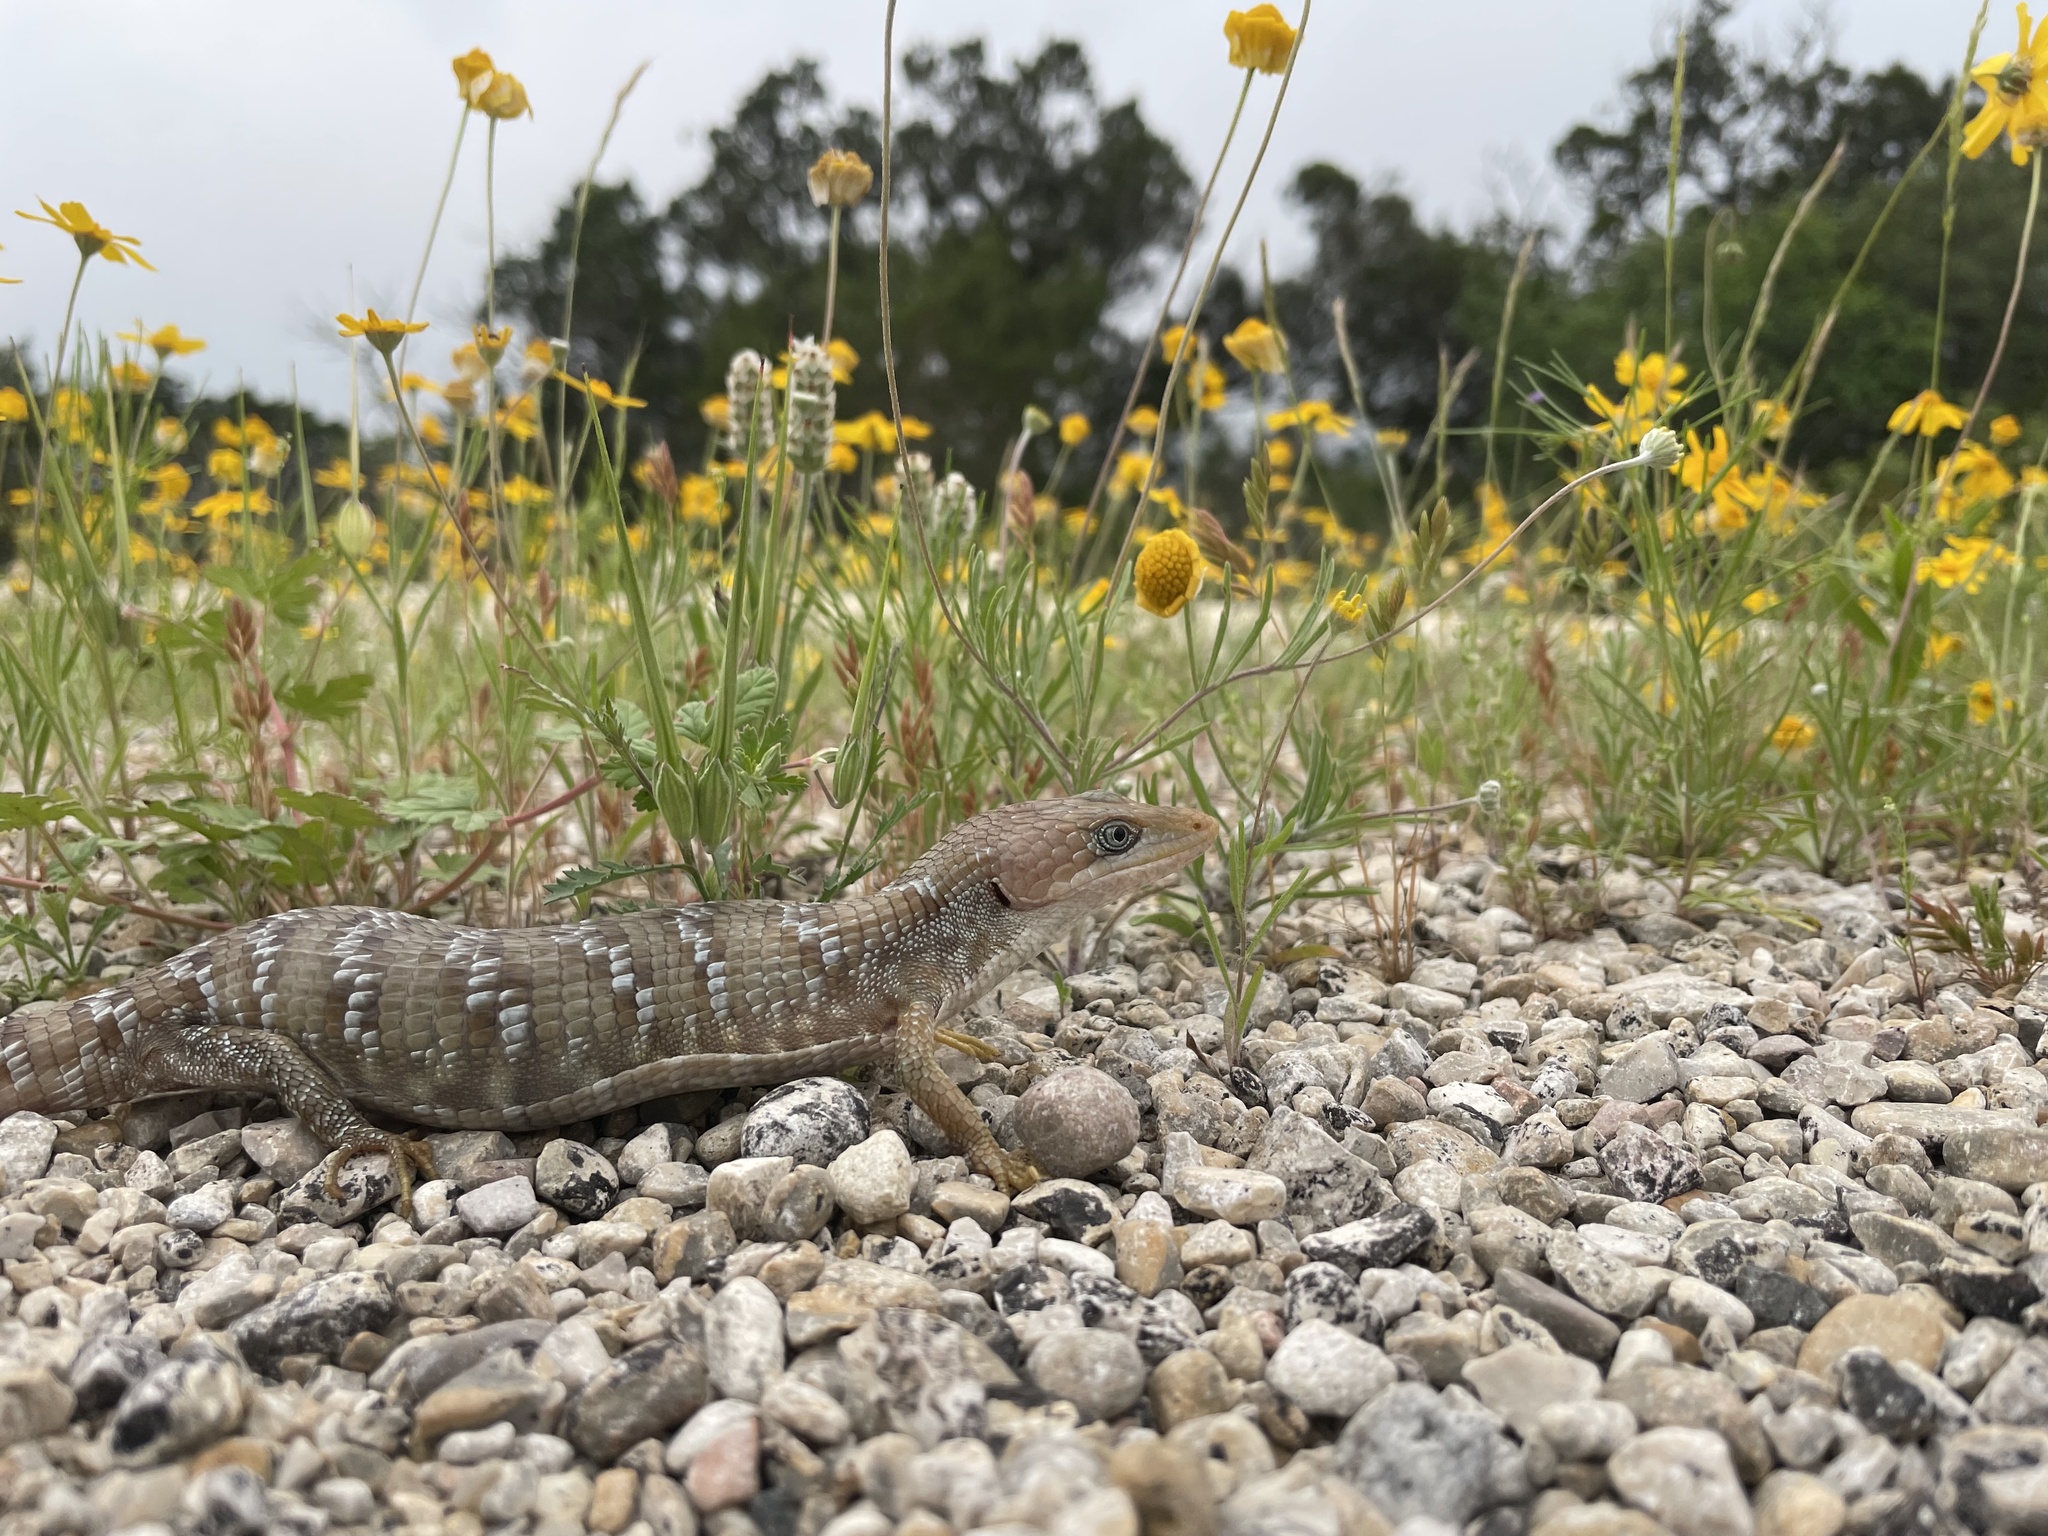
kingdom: Animalia
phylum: Chordata
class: Squamata
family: Anguidae
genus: Gerrhonotus
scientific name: Gerrhonotus infernalis
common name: Texas alligator lizard
